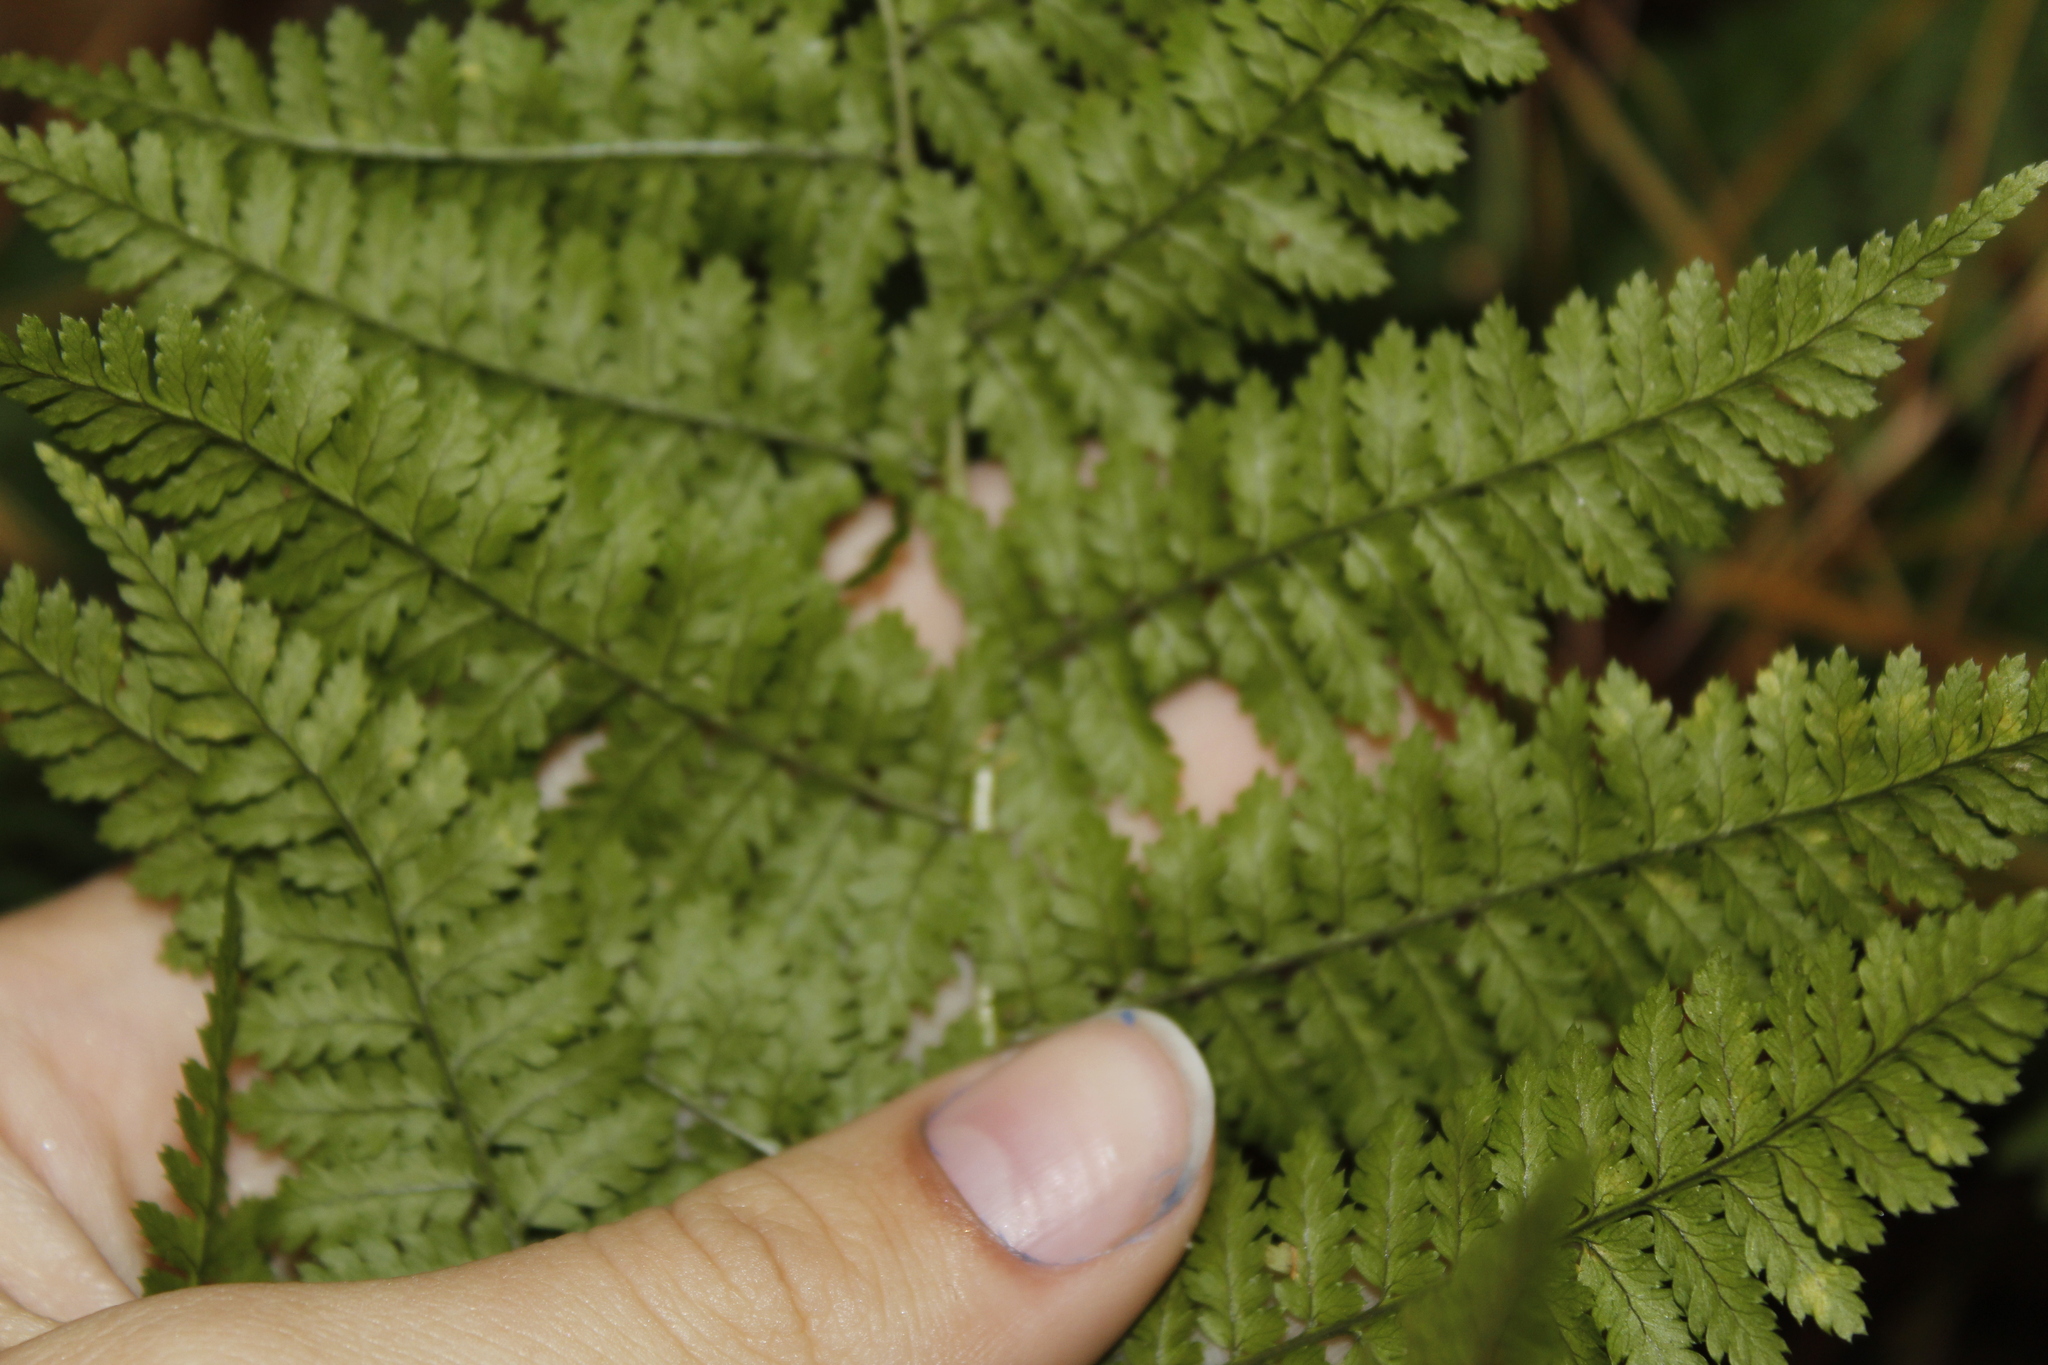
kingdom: Plantae
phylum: Tracheophyta
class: Polypodiopsida
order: Polypodiales
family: Dryopteridaceae
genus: Dryopteris
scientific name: Dryopteris intermedia
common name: Evergreen wood fern
